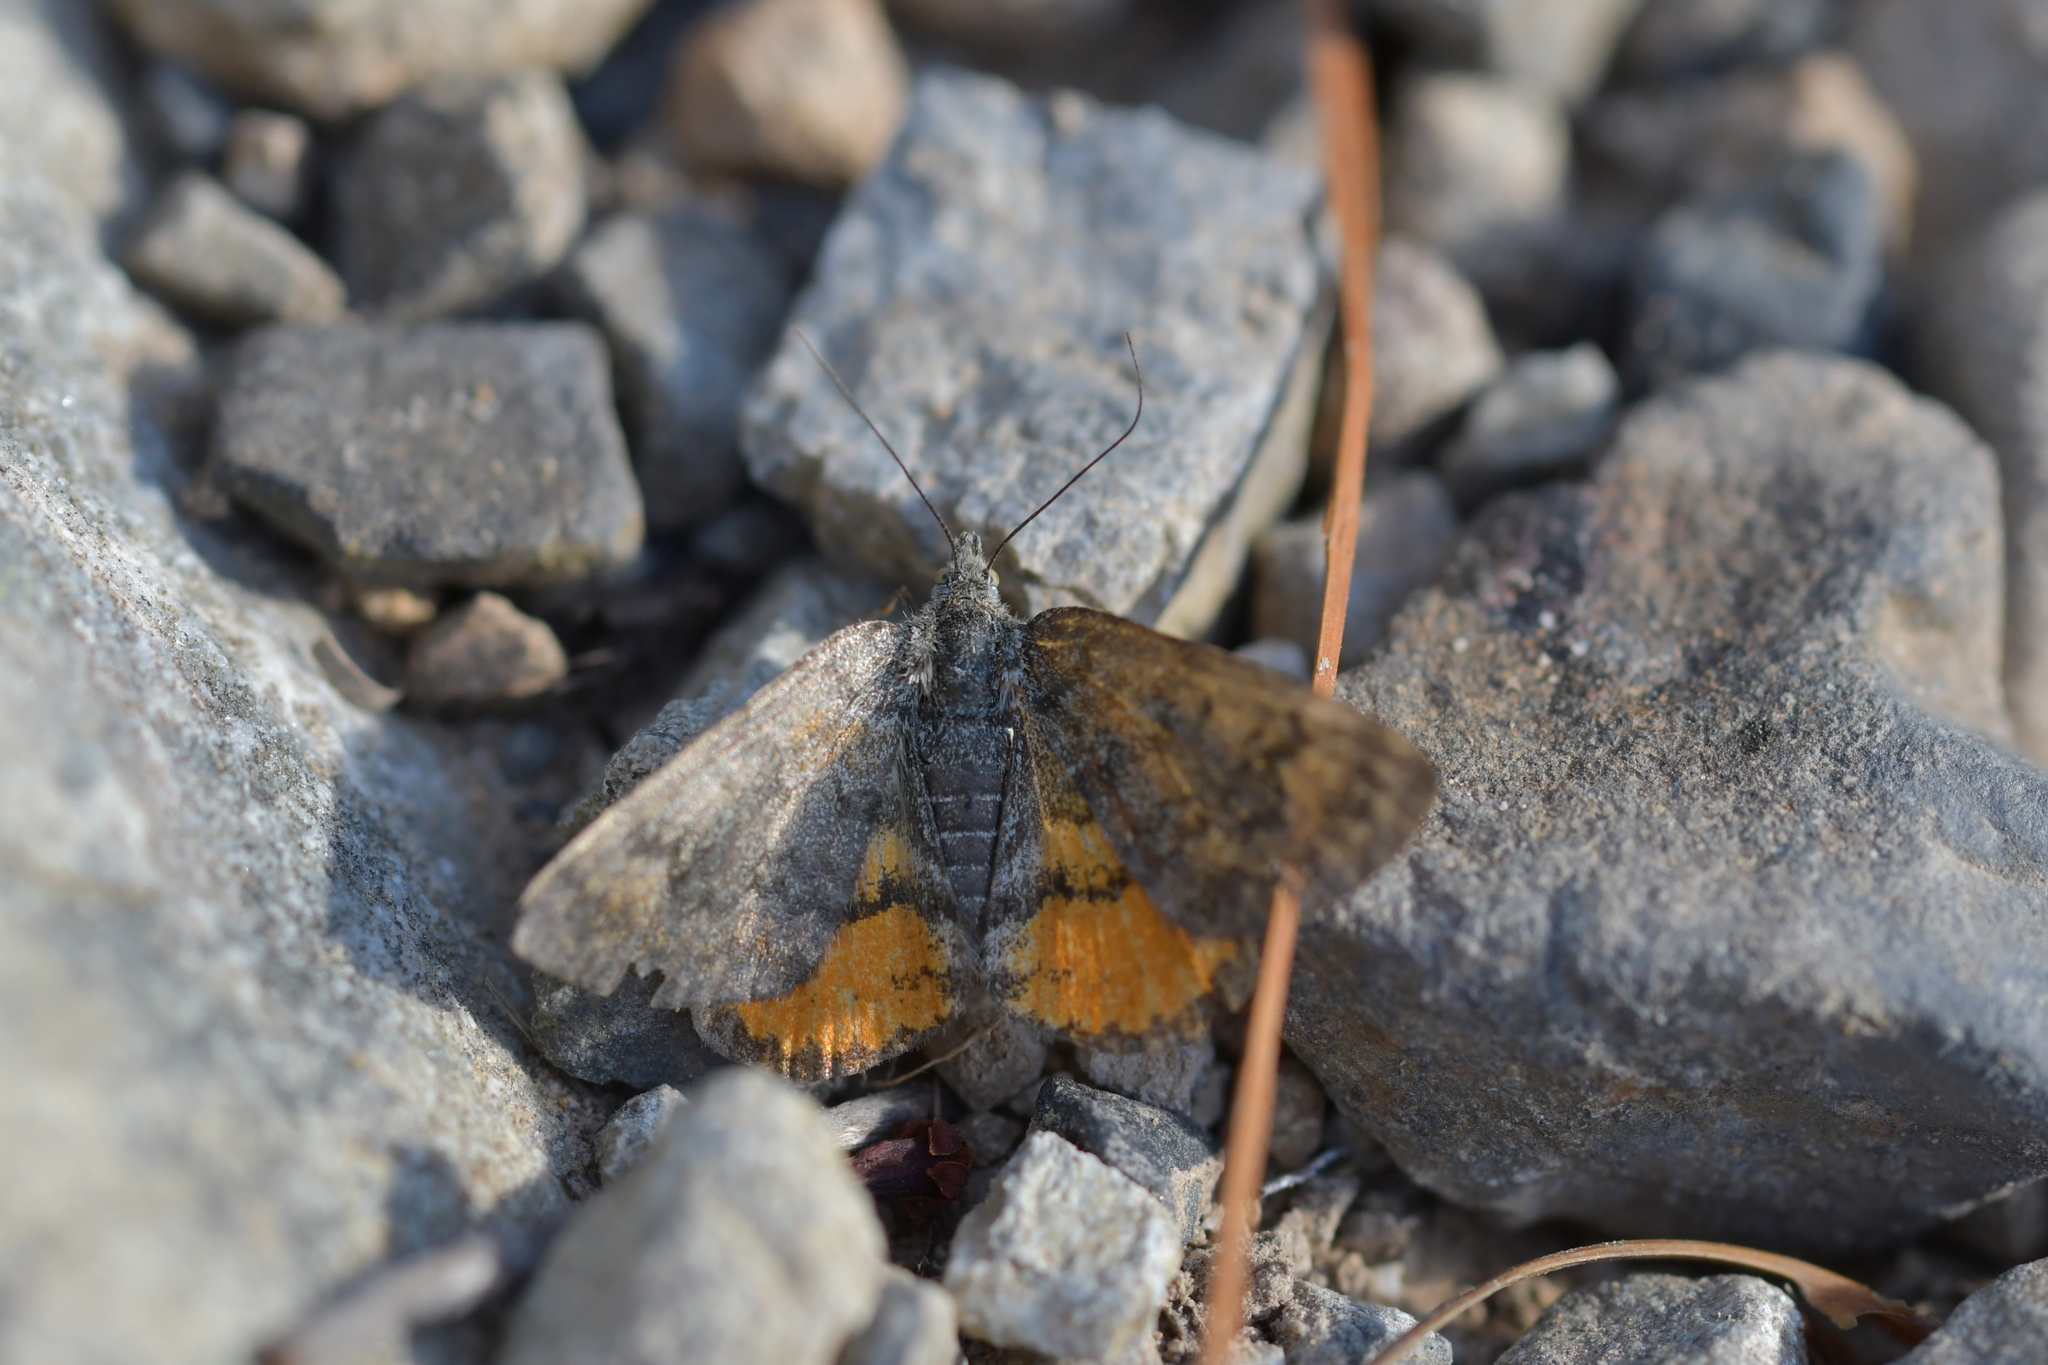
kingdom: Animalia
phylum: Arthropoda
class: Insecta
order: Lepidoptera
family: Geometridae
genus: Paranotoreas
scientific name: Paranotoreas brephosata
